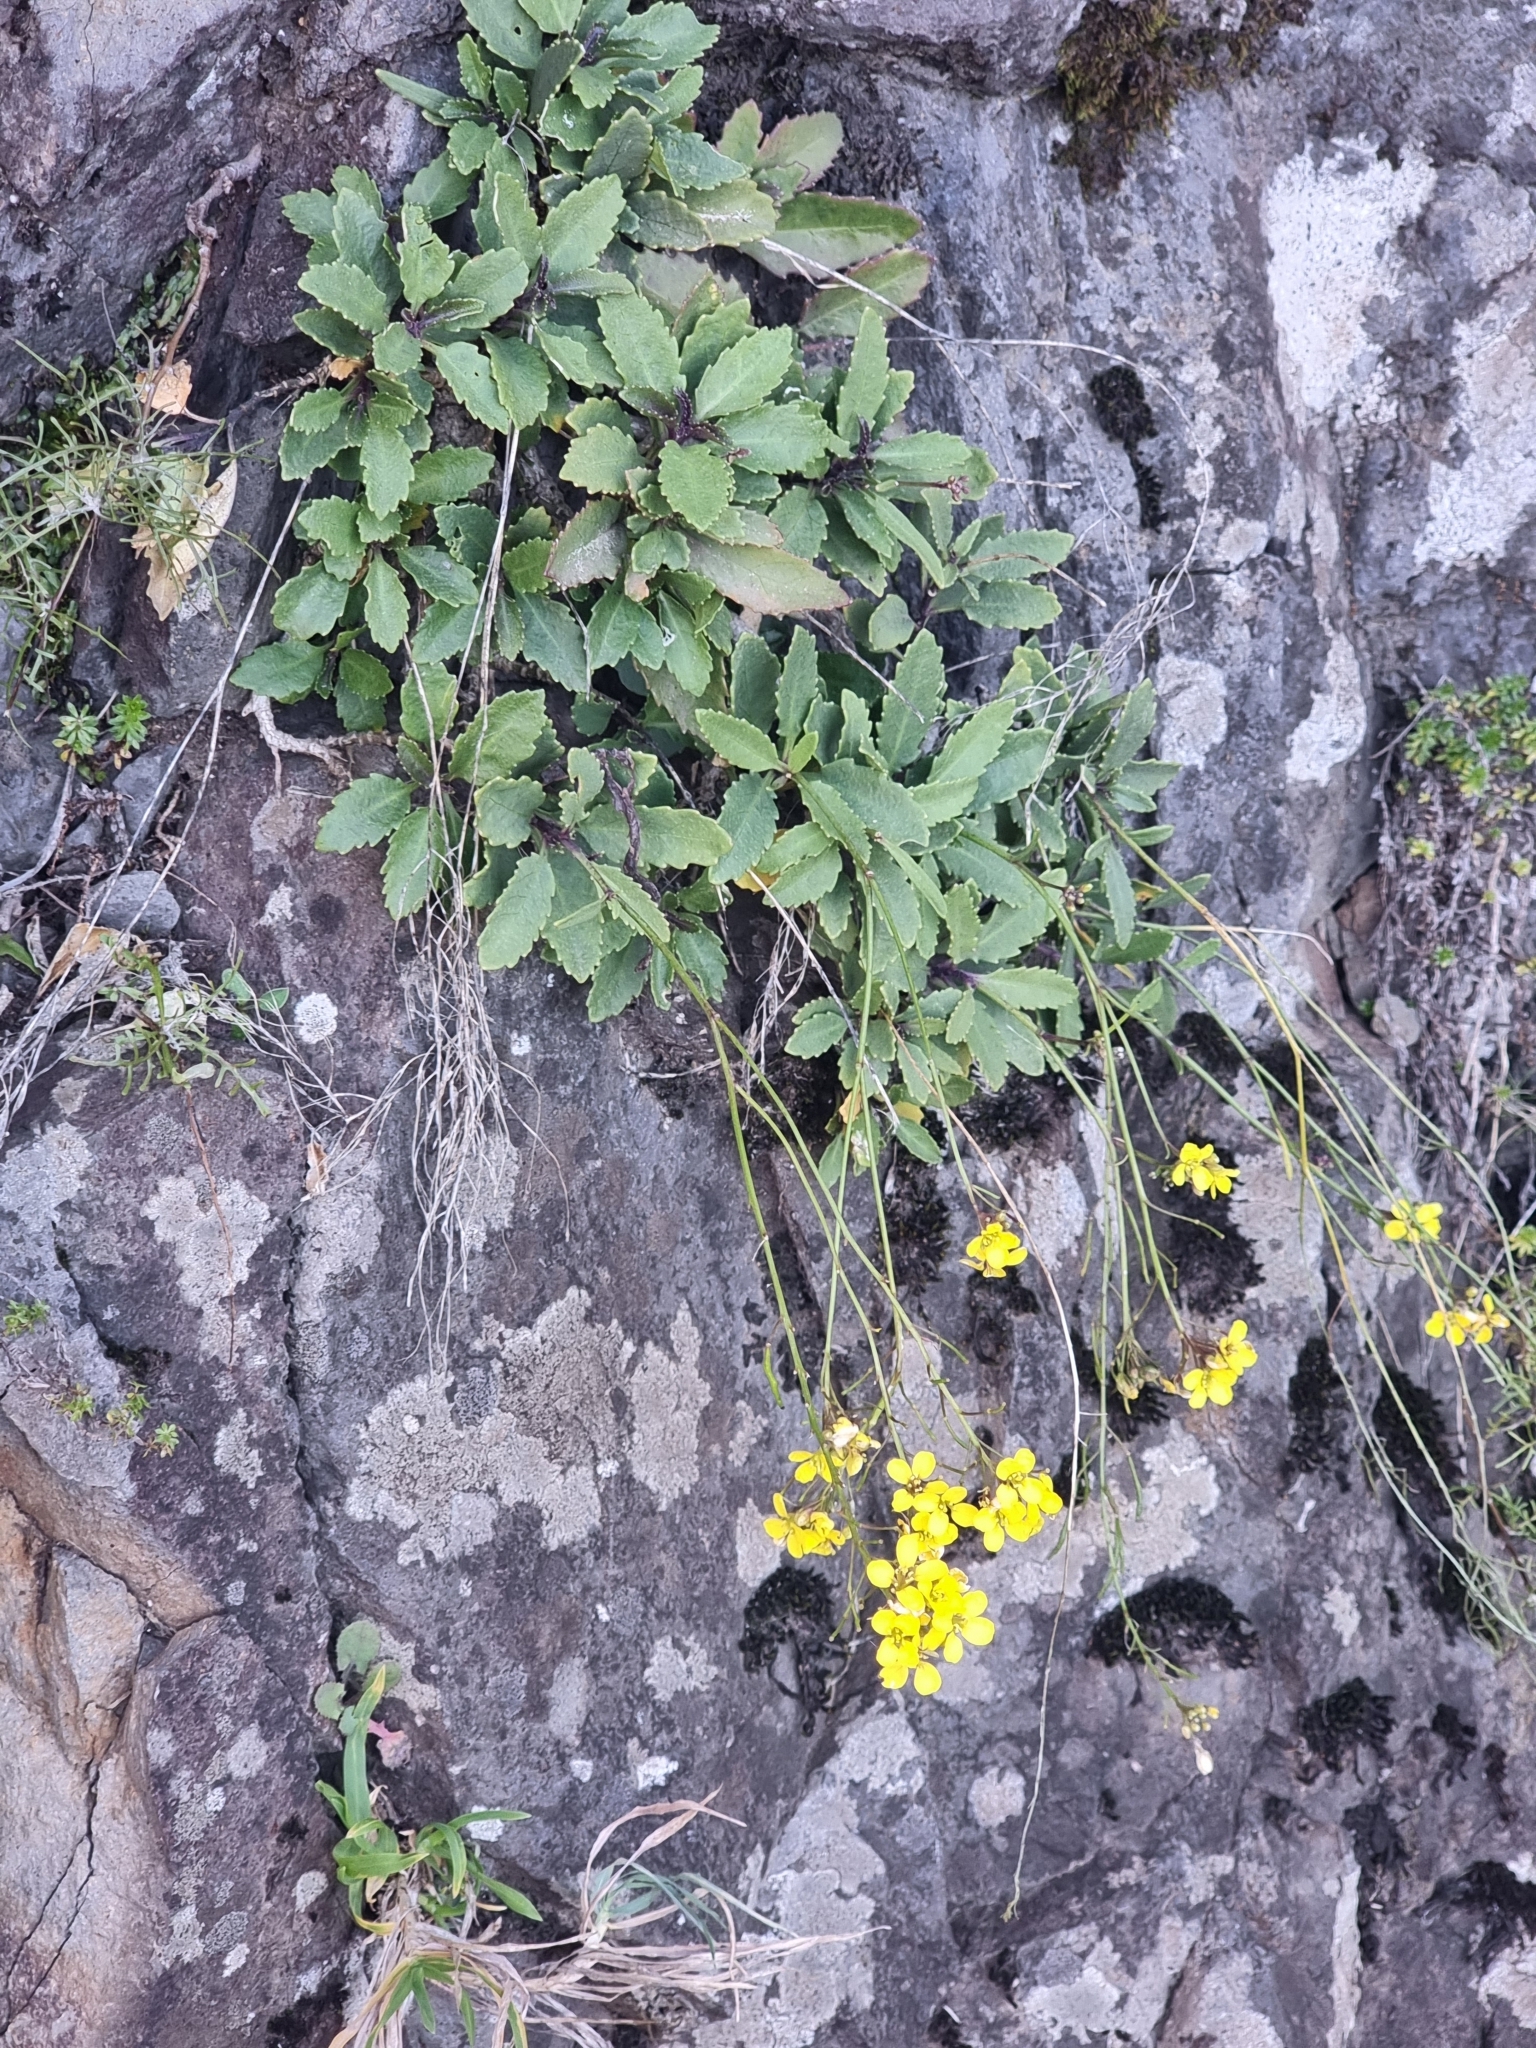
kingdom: Plantae
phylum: Tracheophyta
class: Magnoliopsida
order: Brassicales
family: Brassicaceae
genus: Sinapidendron
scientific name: Sinapidendron frutescens
